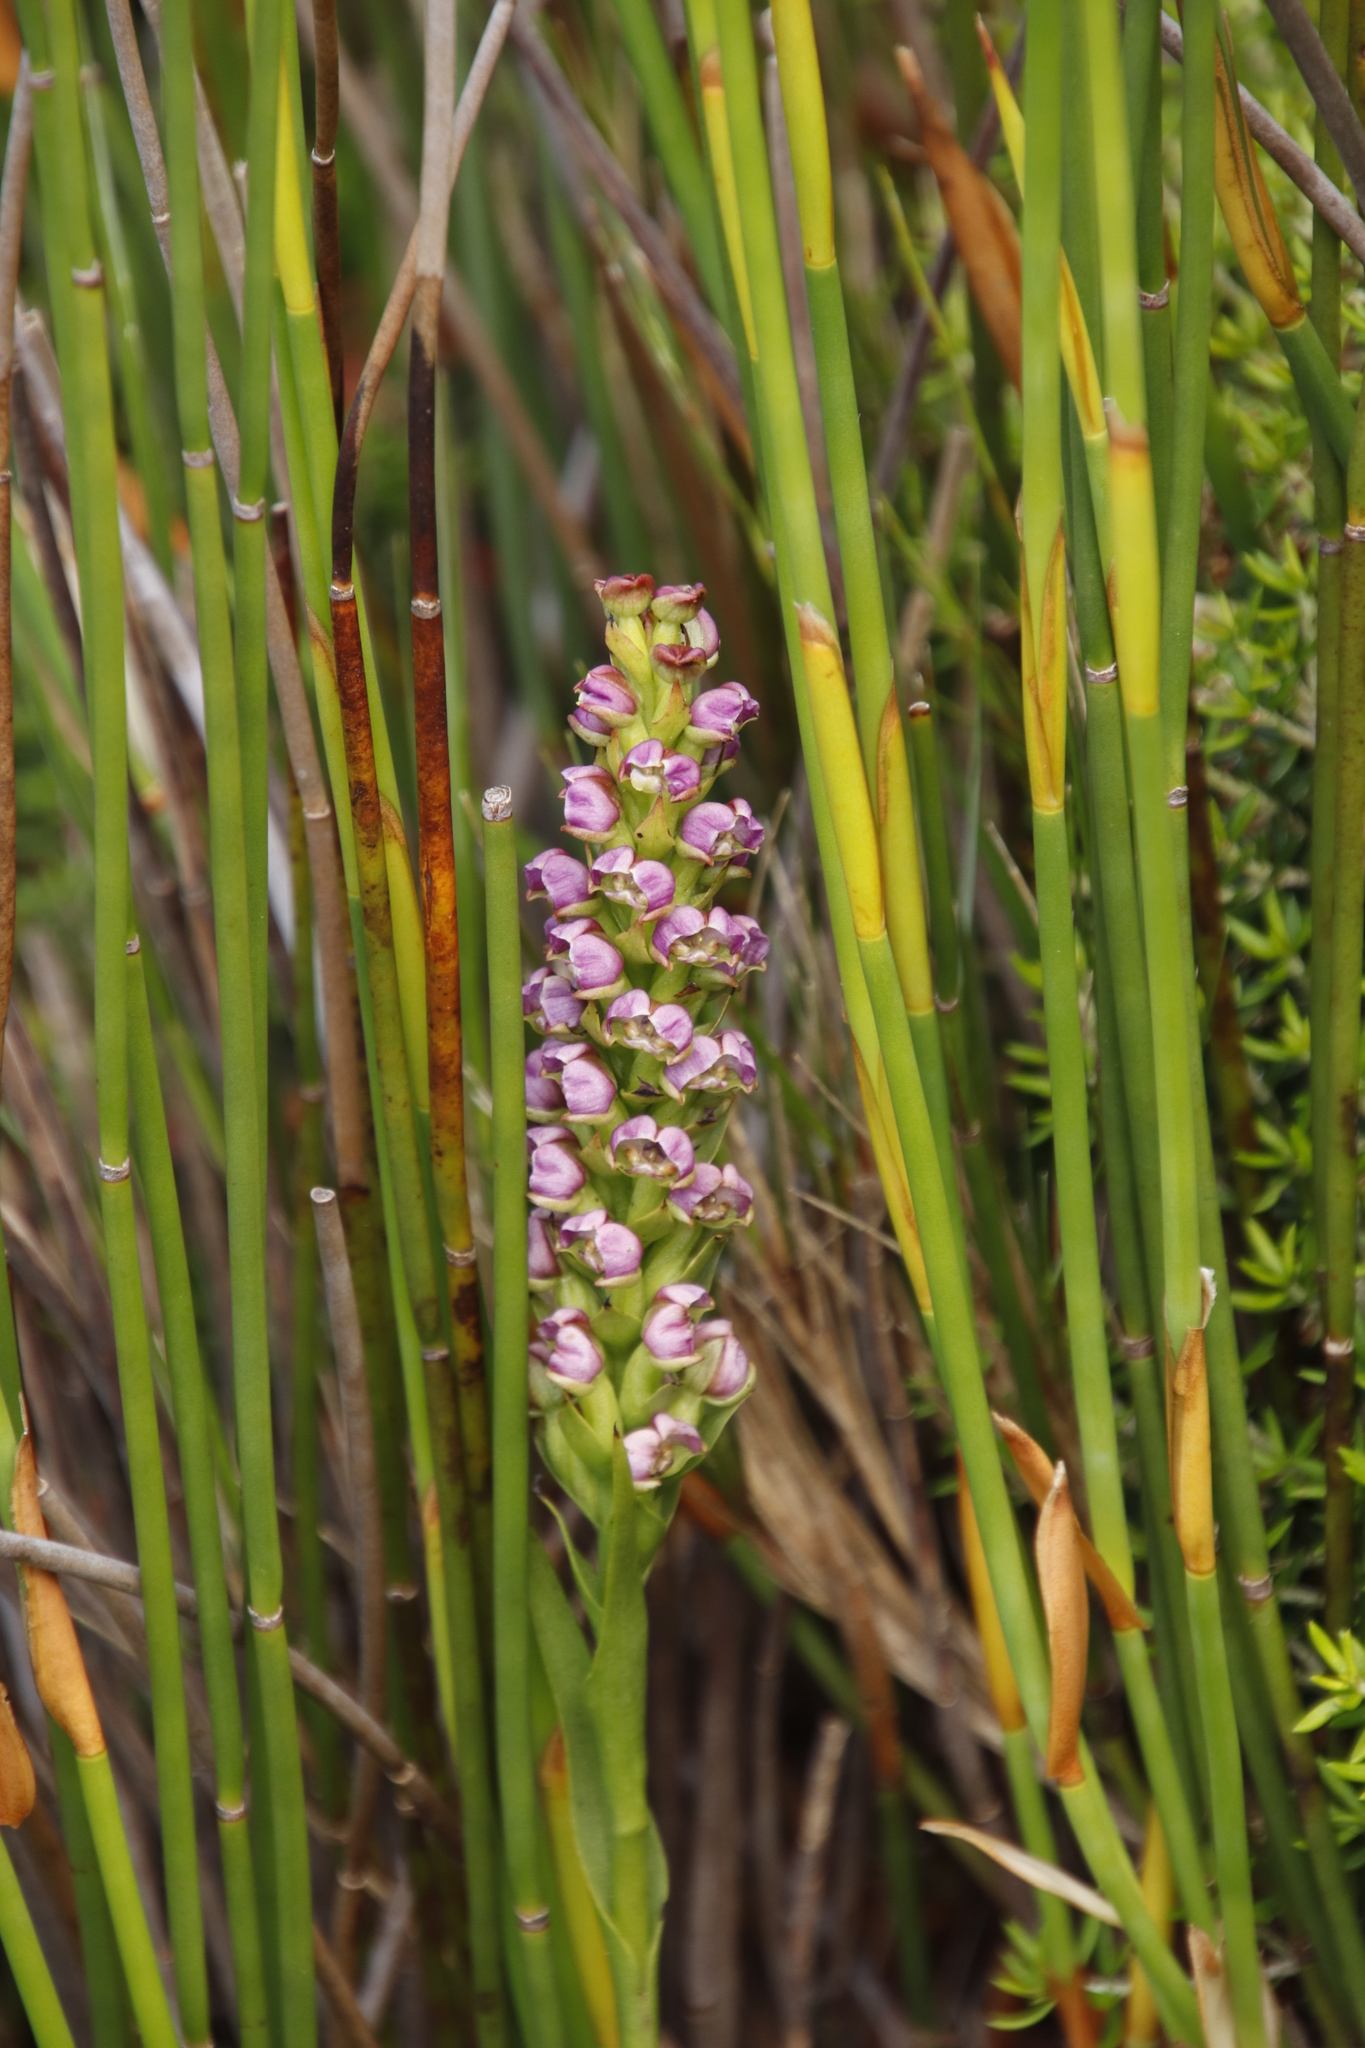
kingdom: Plantae
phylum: Tracheophyta
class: Liliopsida
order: Asparagales
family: Orchidaceae
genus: Evotella
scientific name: Evotella carnosa
